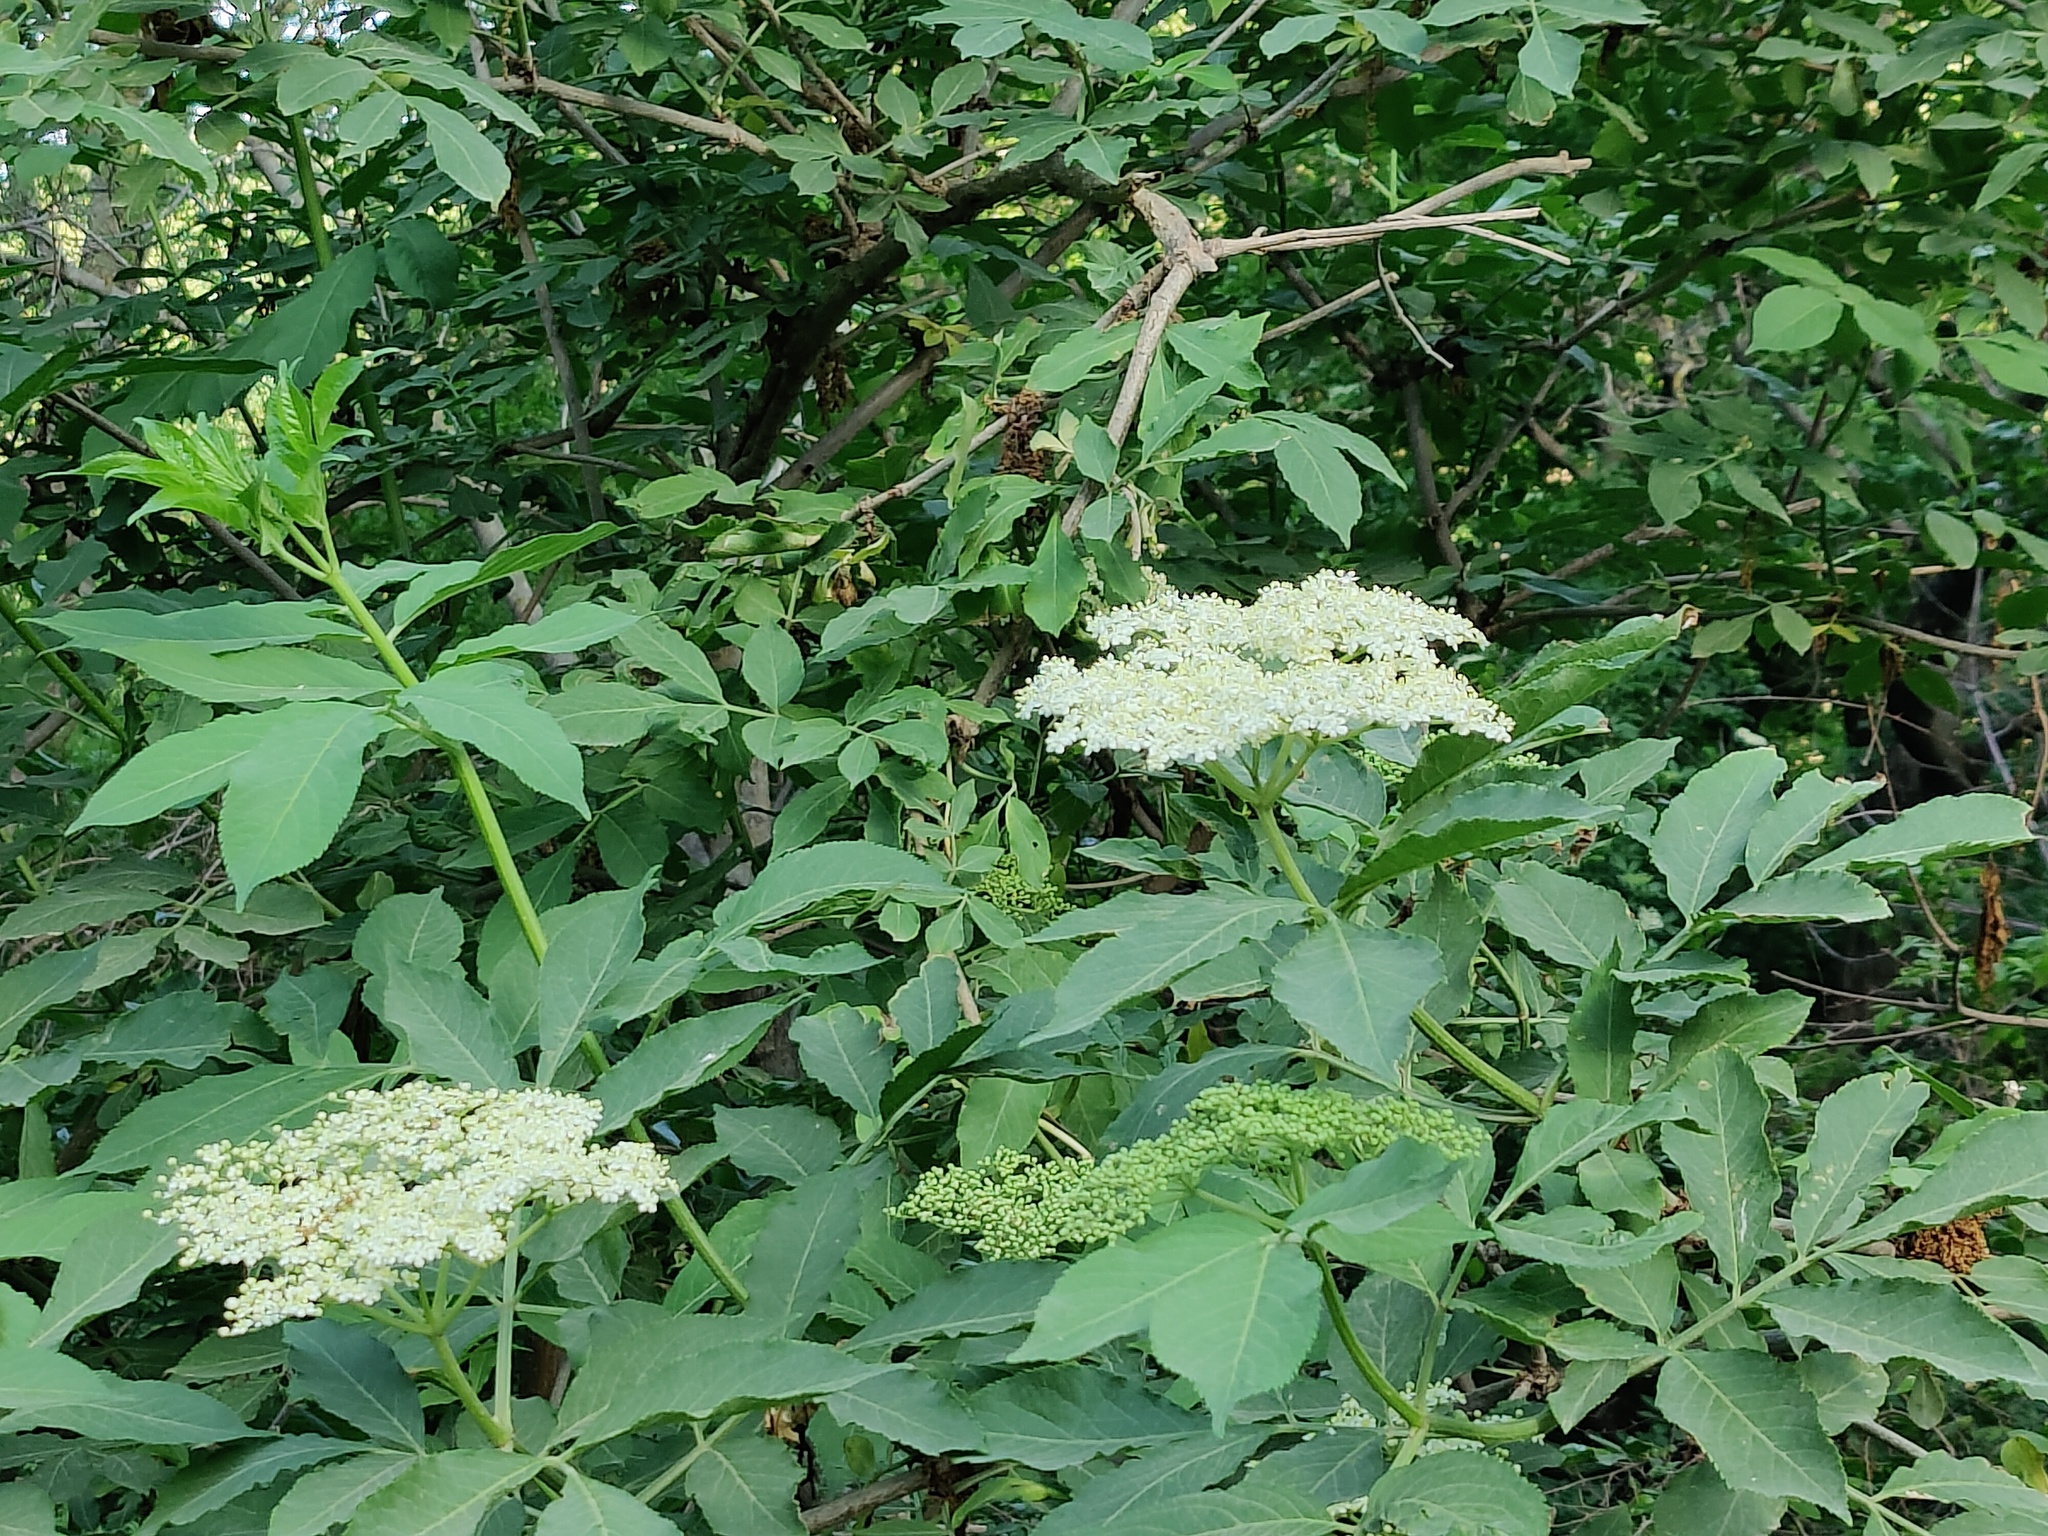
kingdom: Plantae
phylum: Tracheophyta
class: Magnoliopsida
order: Dipsacales
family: Viburnaceae
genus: Sambucus
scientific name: Sambucus nigra
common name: Elder
